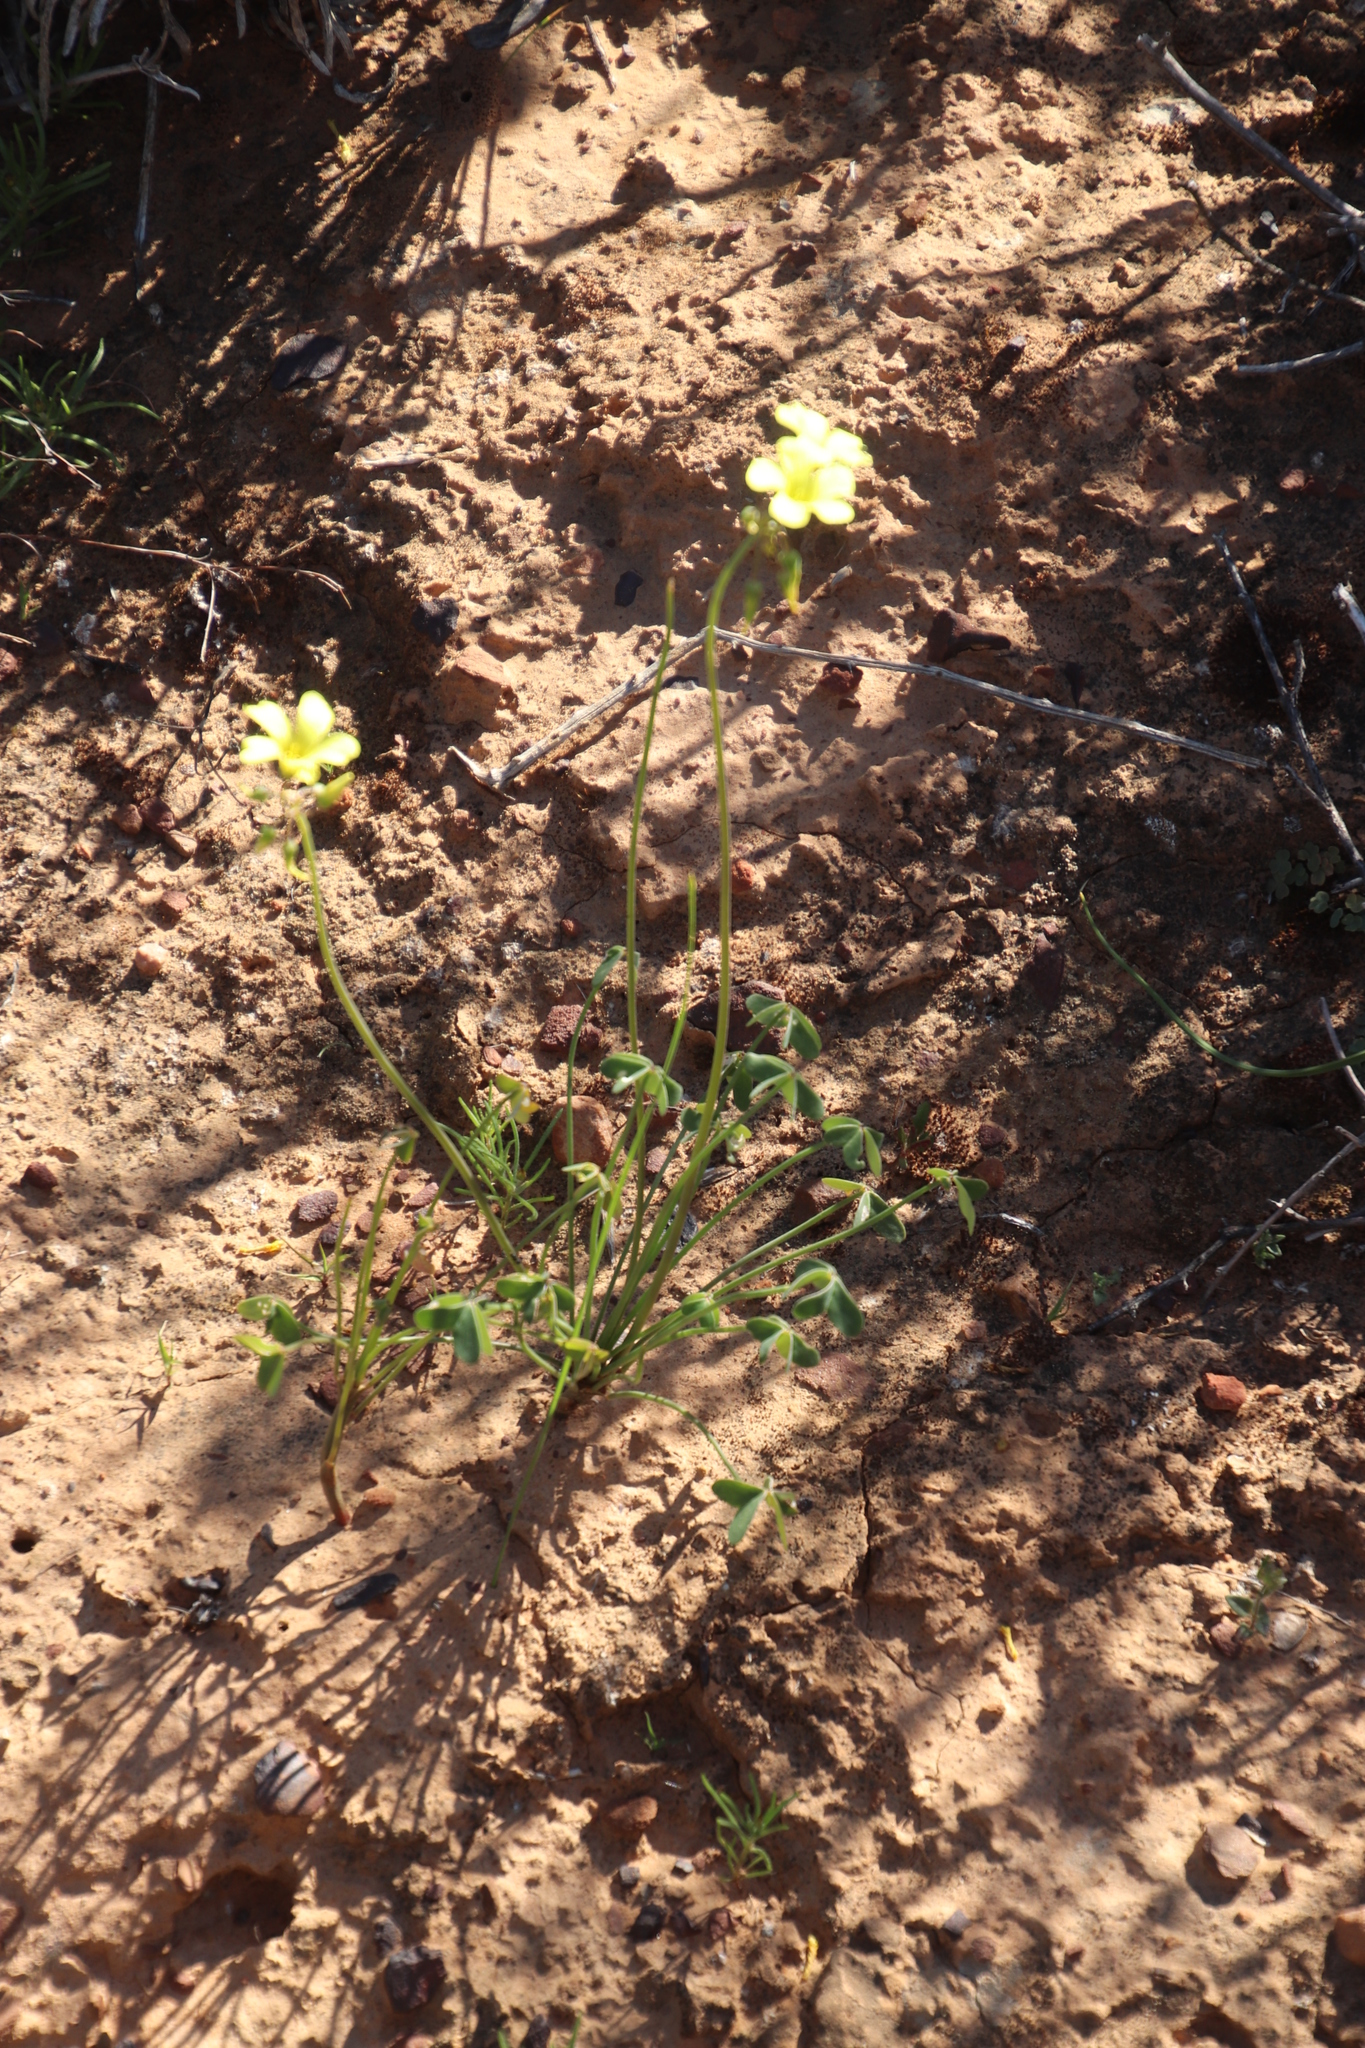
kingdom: Plantae
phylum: Tracheophyta
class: Magnoliopsida
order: Oxalidales
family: Oxalidaceae
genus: Oxalis
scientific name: Oxalis pes-caprae
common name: Bermuda-buttercup
